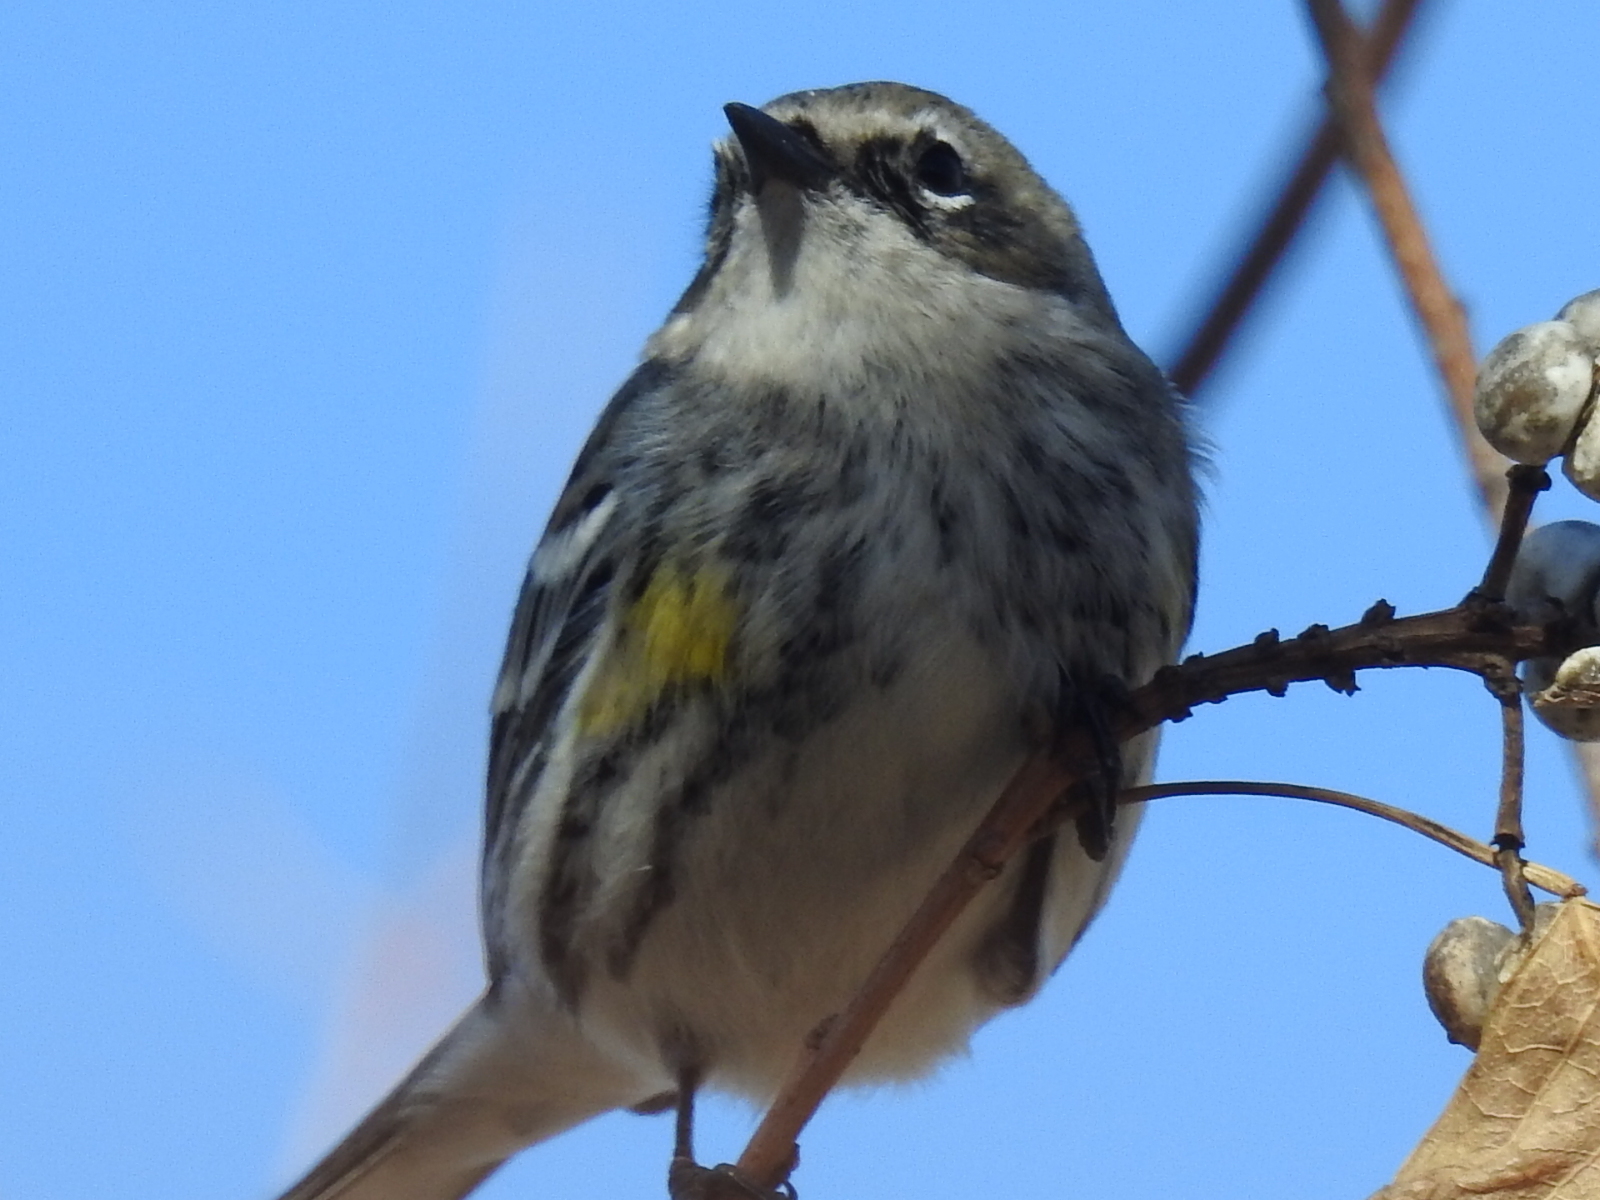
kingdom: Animalia
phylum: Chordata
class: Aves
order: Passeriformes
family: Parulidae
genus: Setophaga
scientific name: Setophaga coronata
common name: Myrtle warbler
